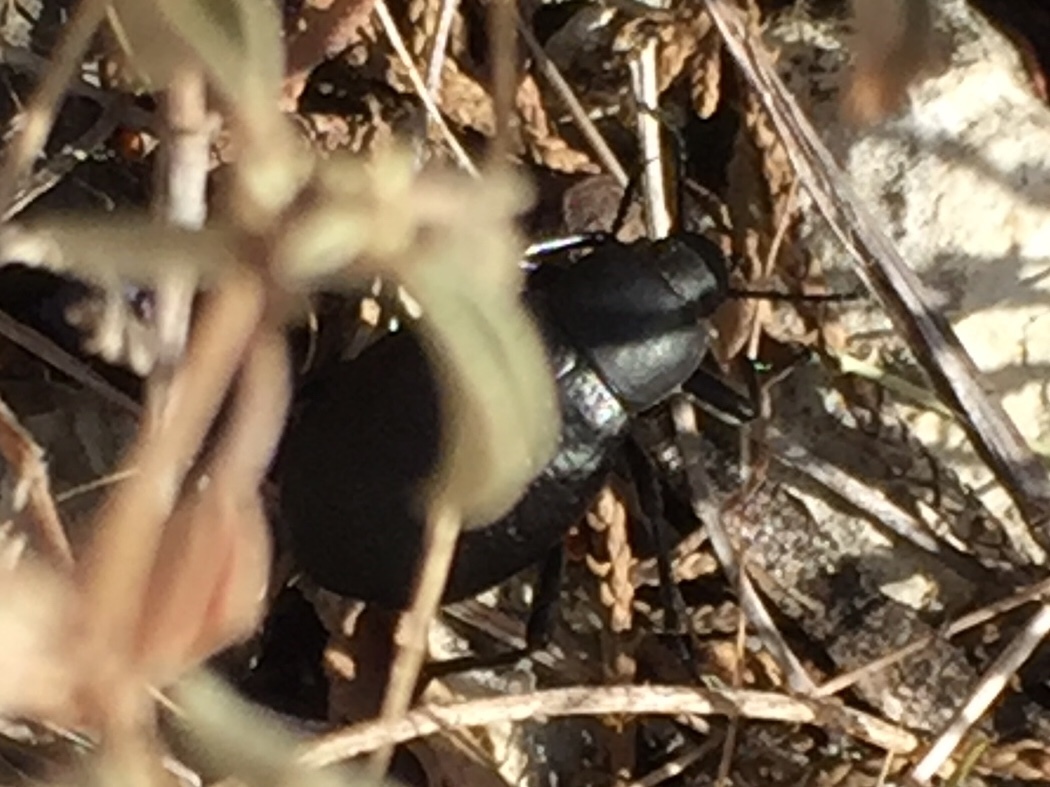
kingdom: Animalia
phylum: Arthropoda
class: Insecta
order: Coleoptera
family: Tenebrionidae
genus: Eleodes
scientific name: Eleodes goryi
